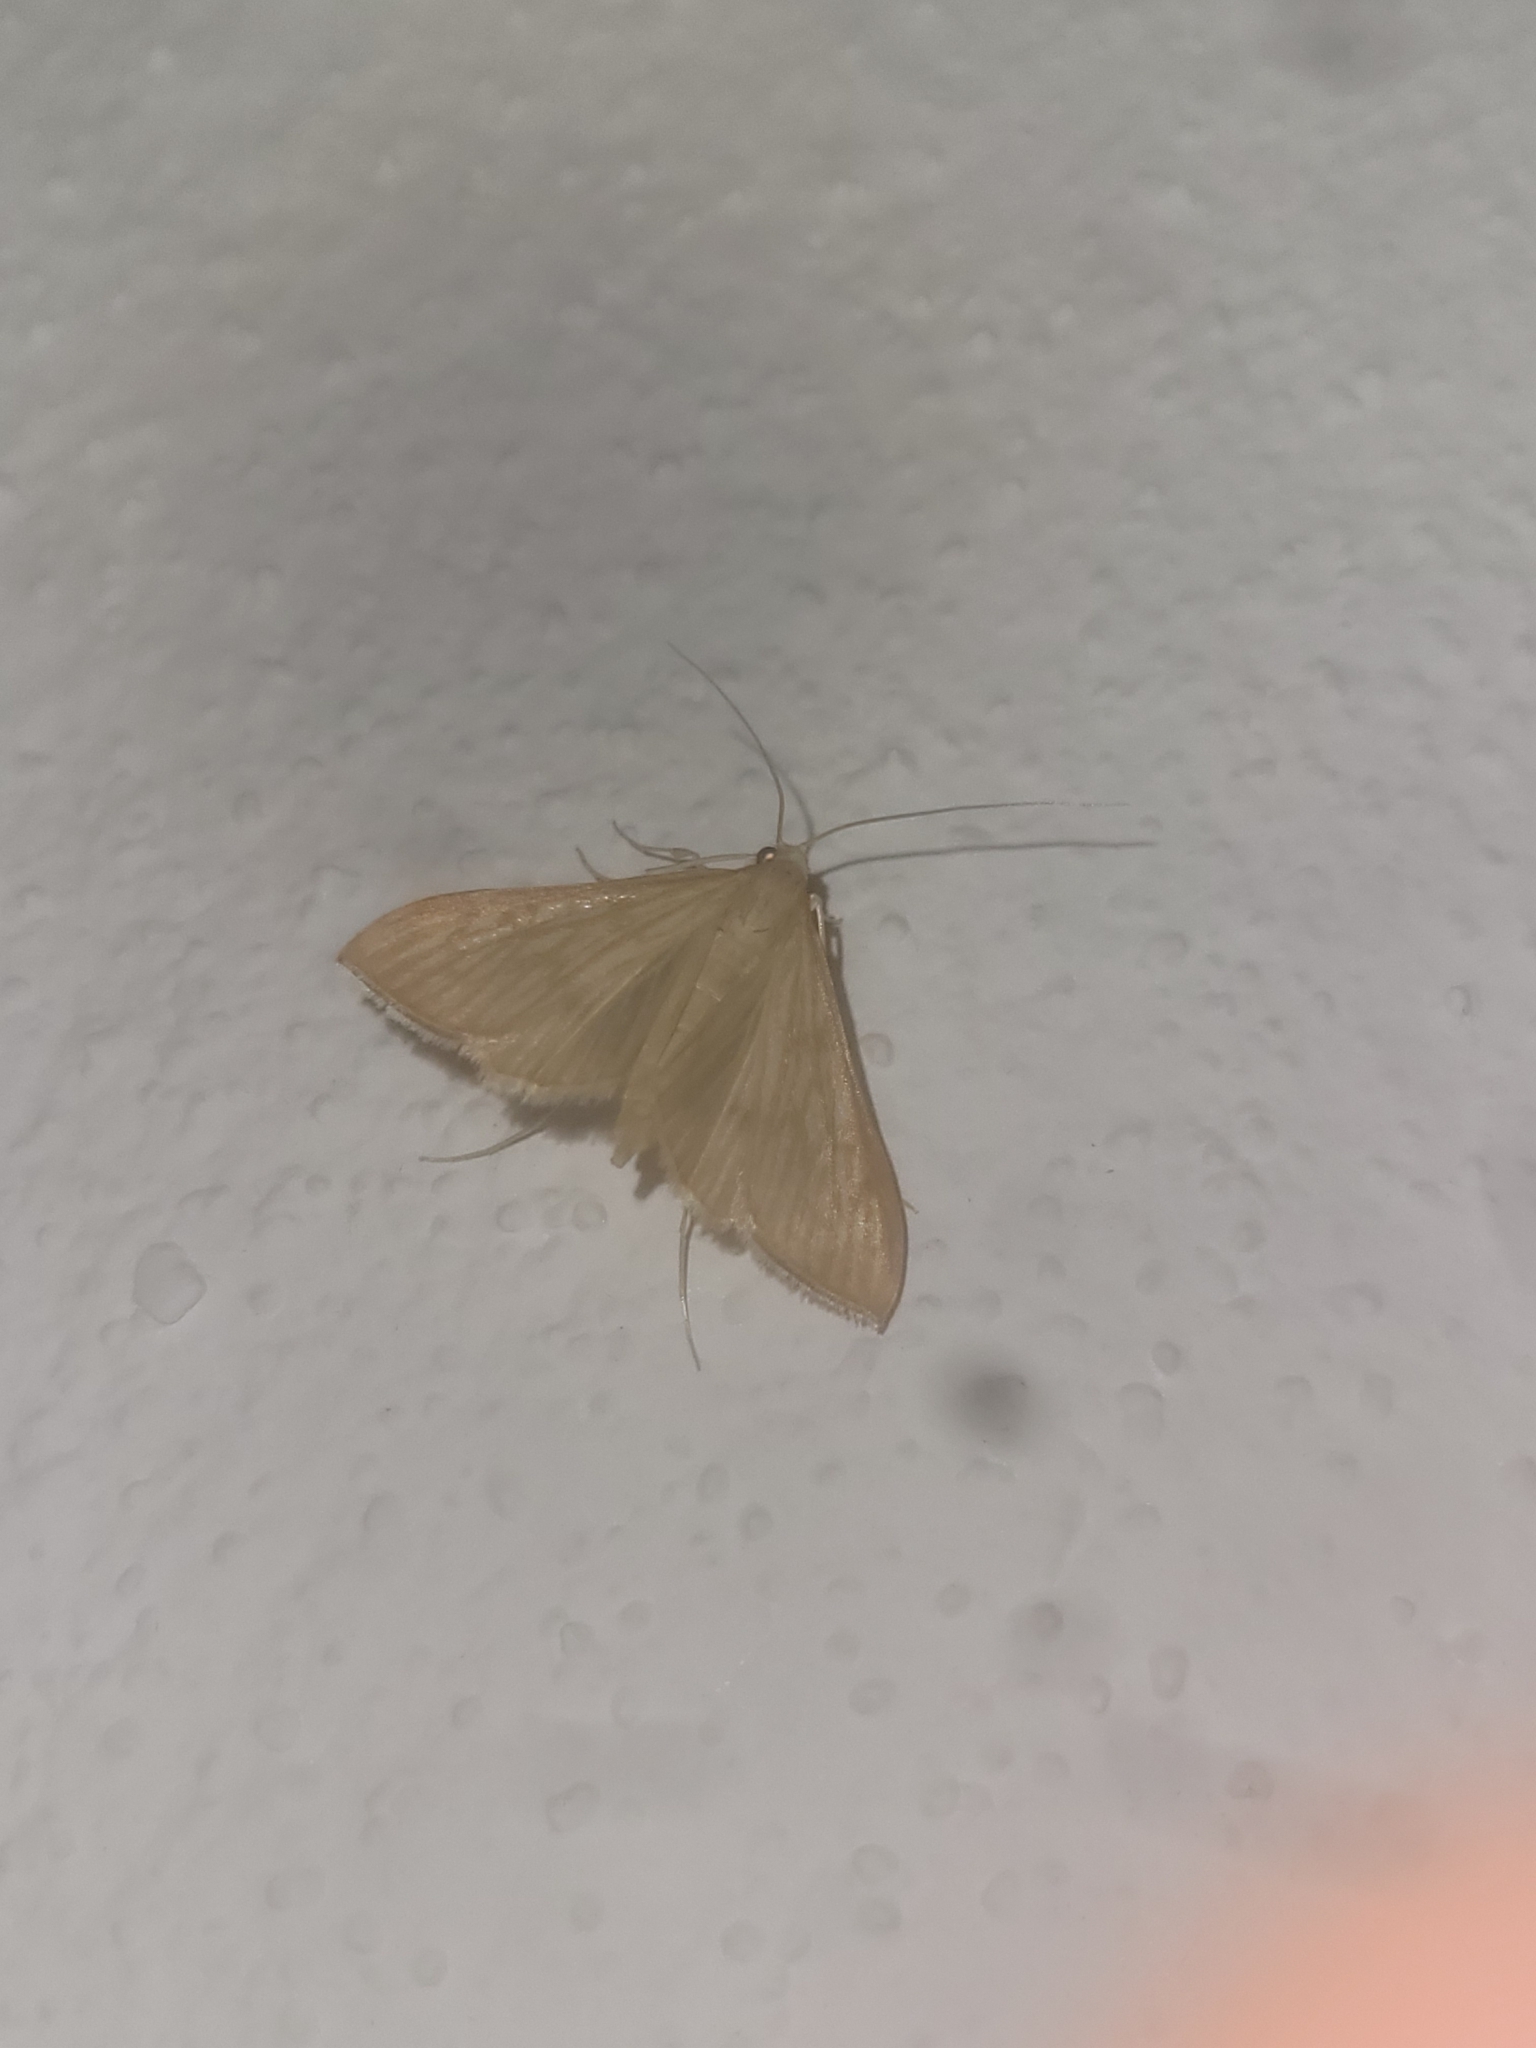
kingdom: Animalia
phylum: Arthropoda
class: Insecta
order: Lepidoptera
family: Crambidae
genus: Antigastra
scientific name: Antigastra catalaunalis
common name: Spanish dot
